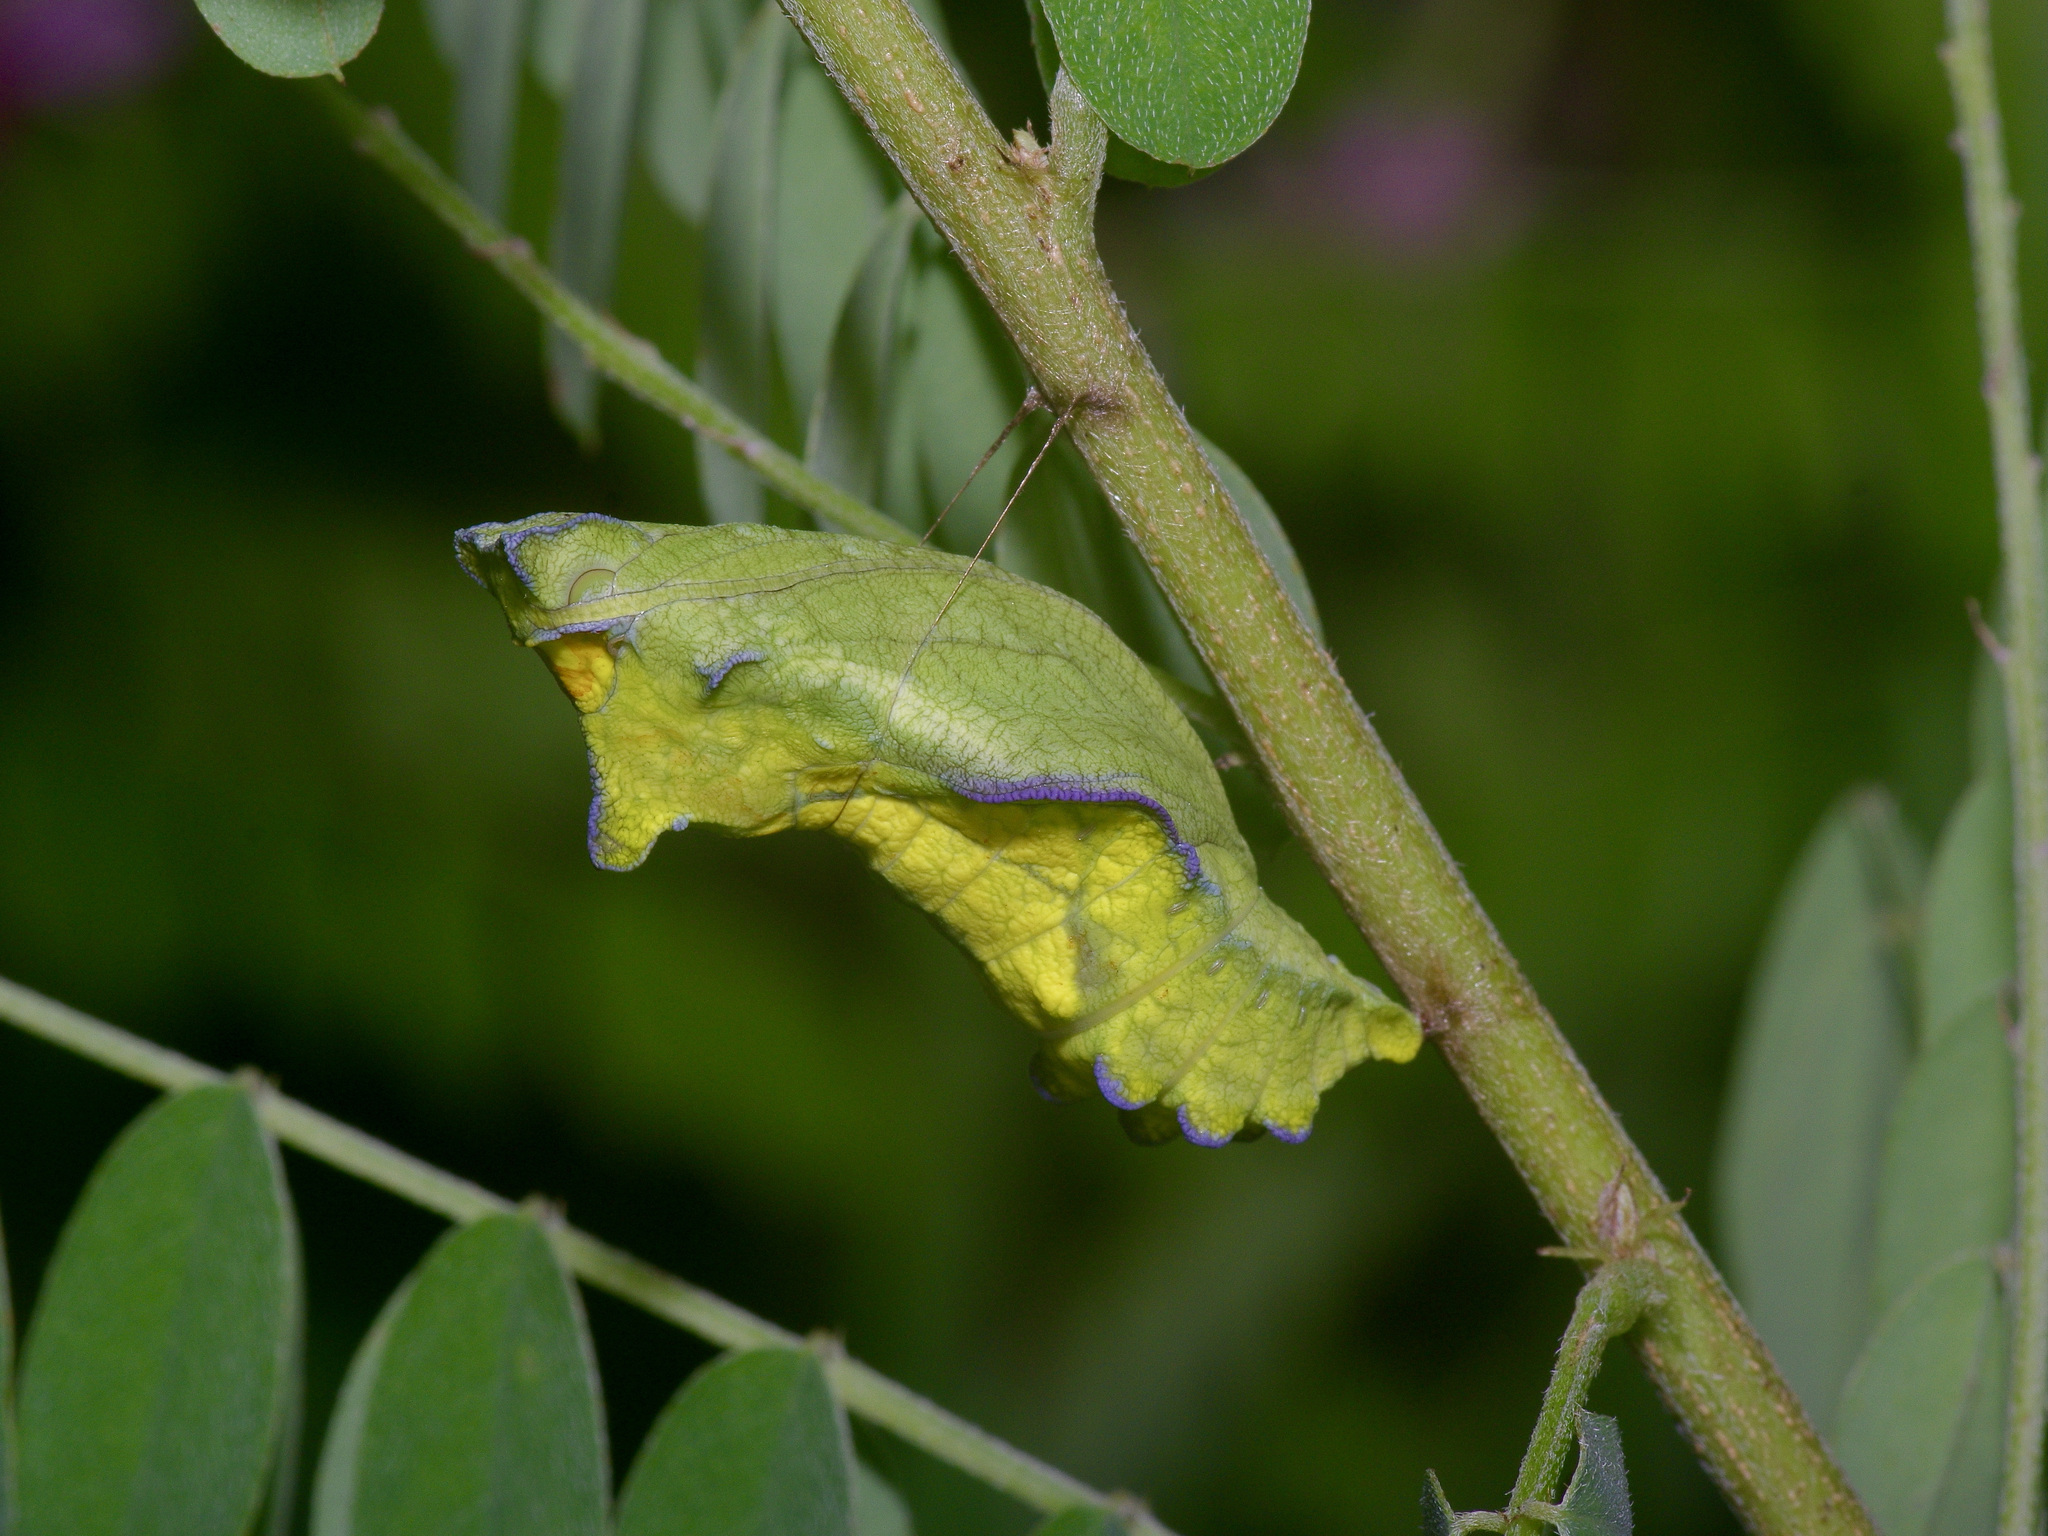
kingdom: Animalia
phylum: Arthropoda
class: Insecta
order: Lepidoptera
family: Papilionidae
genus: Battus
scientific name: Battus philenor
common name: Pipevine swallowtail
